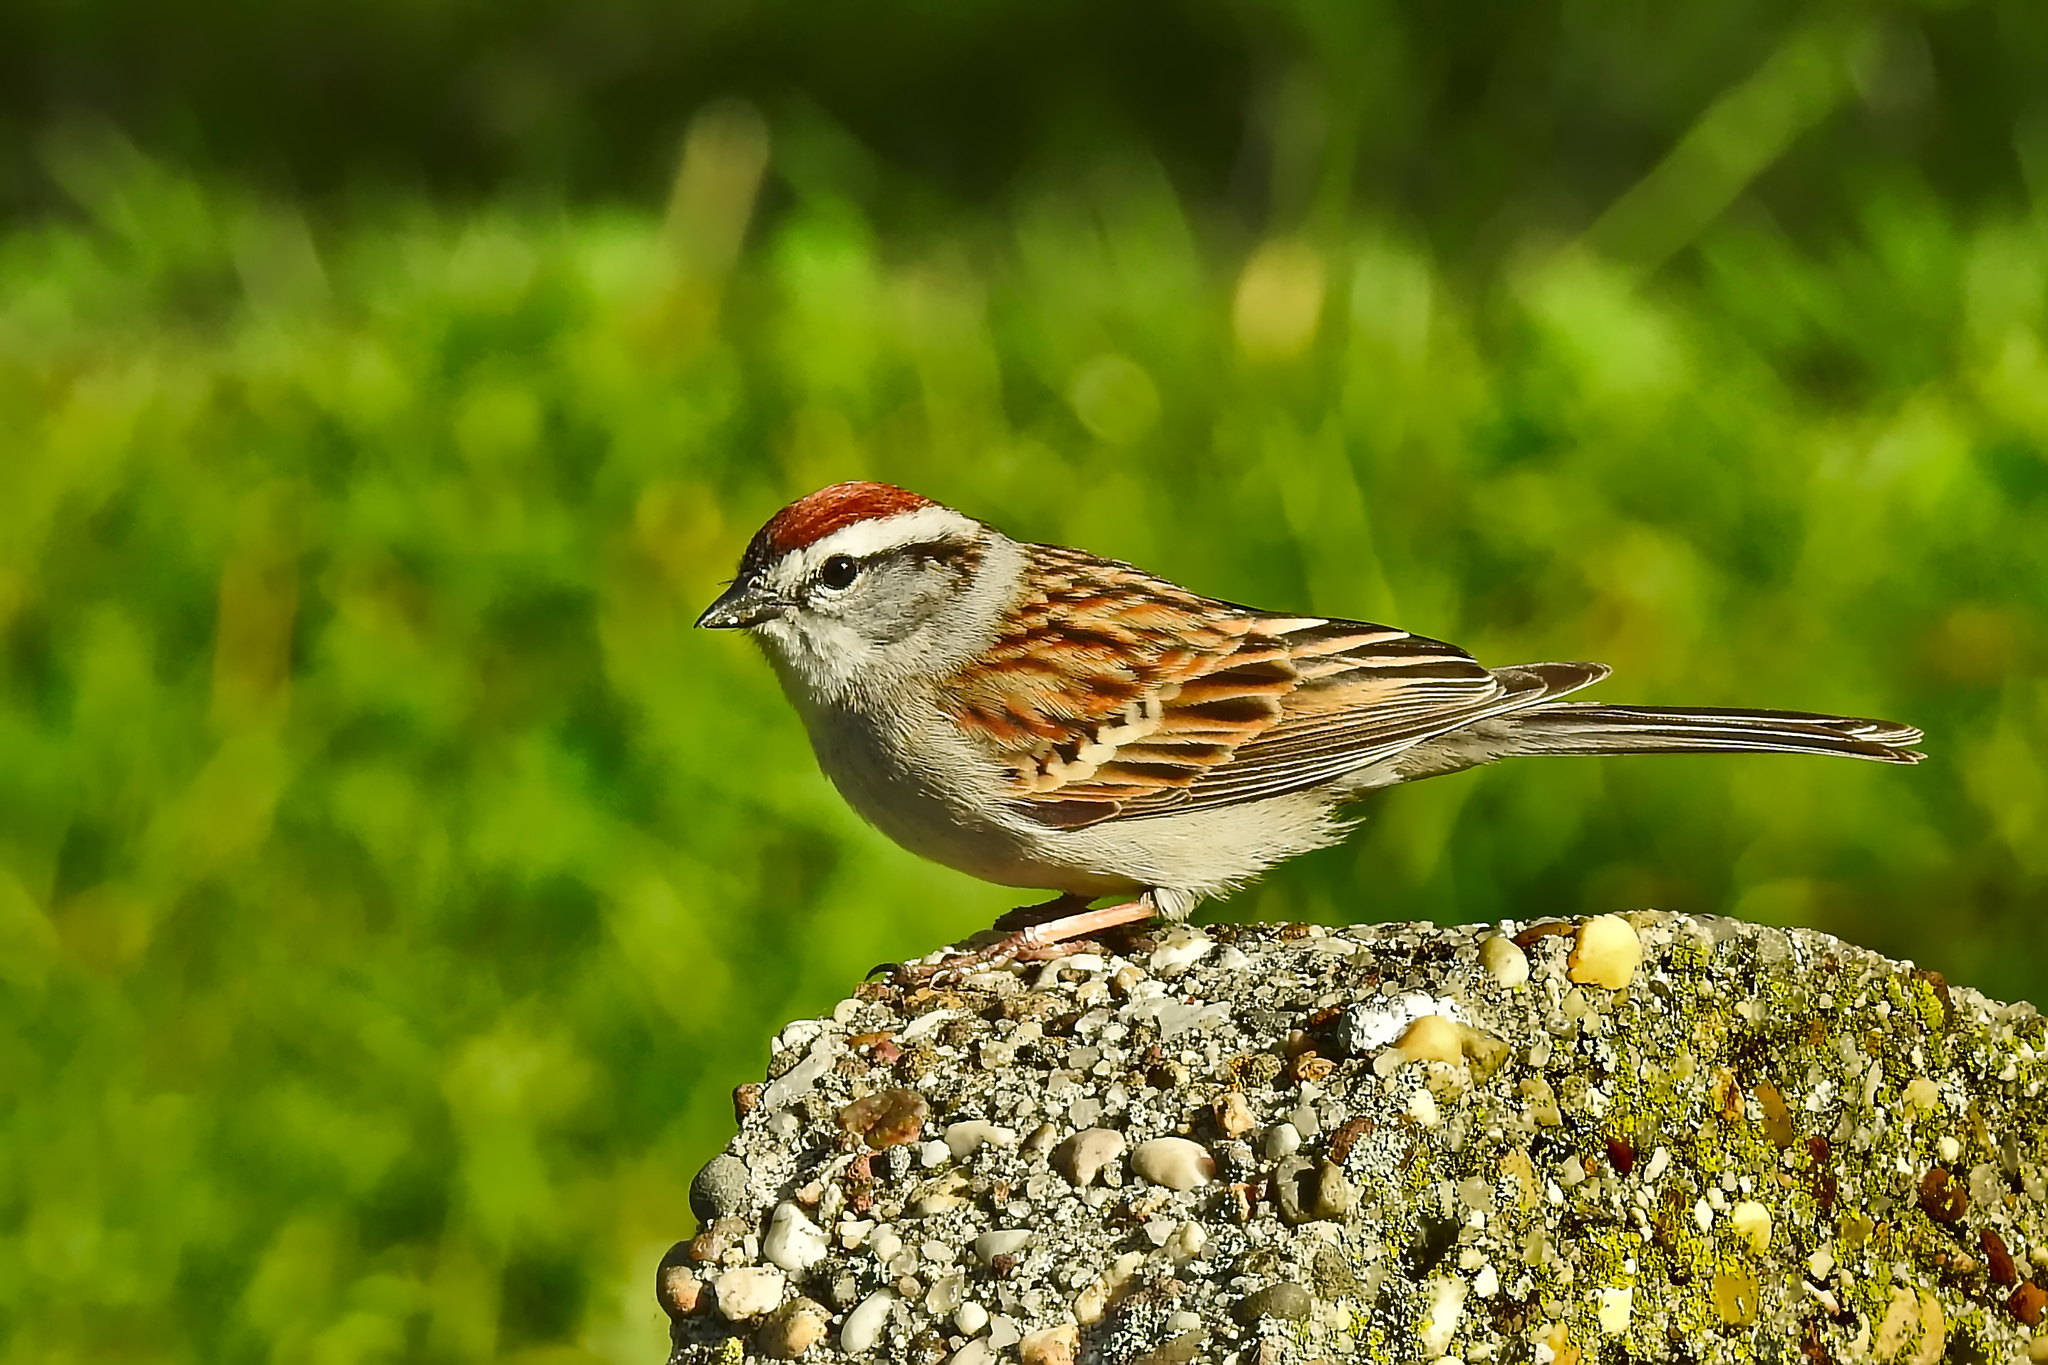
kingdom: Animalia
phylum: Chordata
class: Aves
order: Passeriformes
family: Passerellidae
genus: Spizella
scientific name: Spizella passerina
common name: Chipping sparrow
